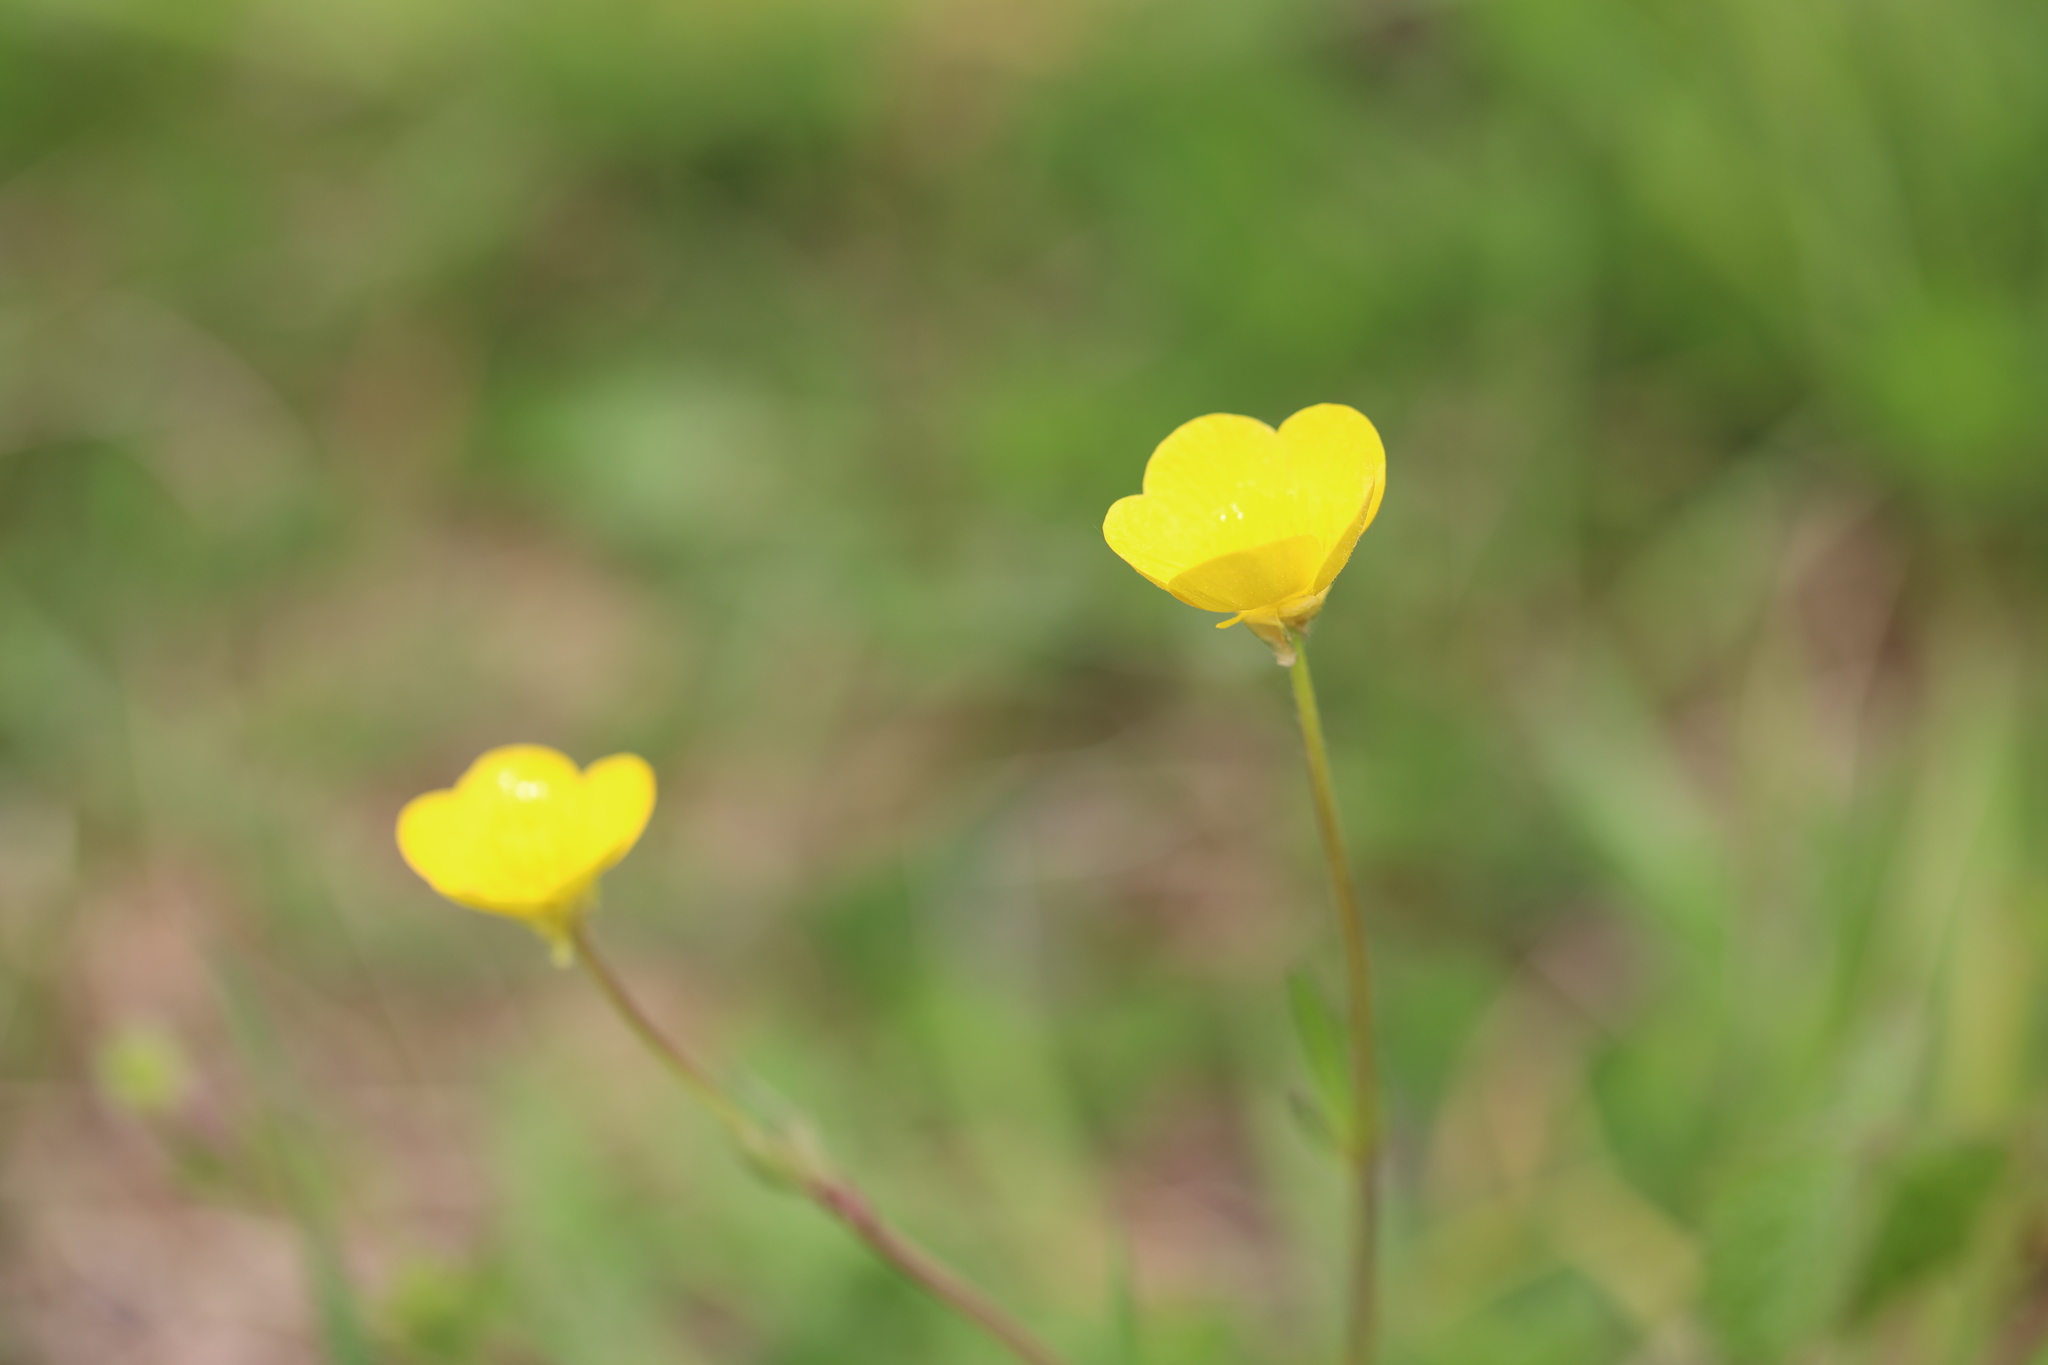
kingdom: Plantae
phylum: Tracheophyta
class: Magnoliopsida
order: Ranunculales
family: Ranunculaceae
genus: Ranunculus
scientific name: Ranunculus bulbosus
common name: Bulbous buttercup
